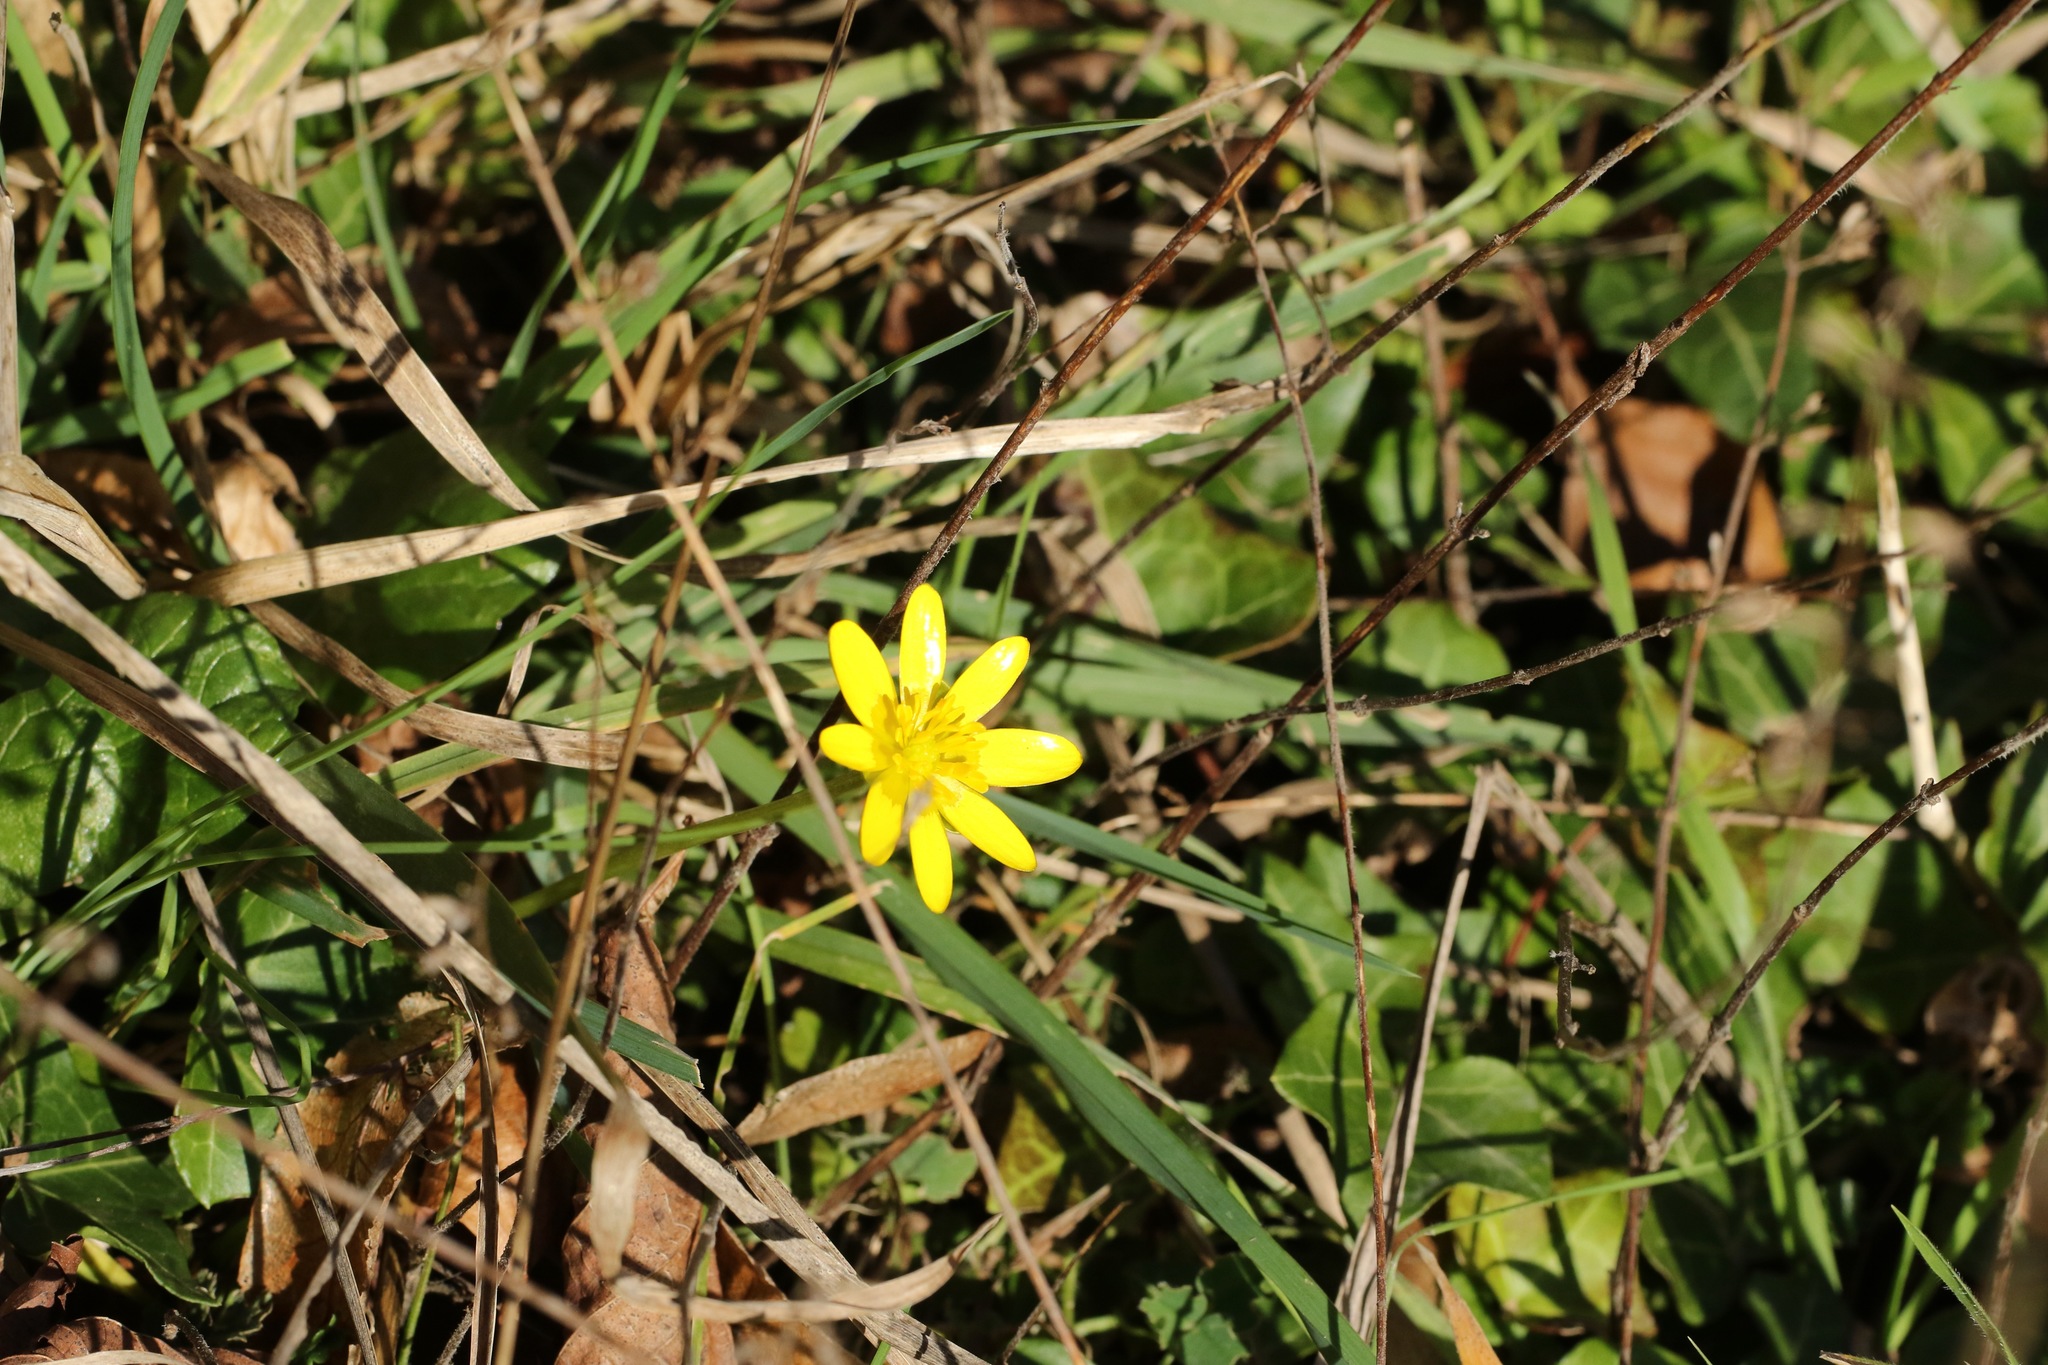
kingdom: Plantae
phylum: Tracheophyta
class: Magnoliopsida
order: Ranunculales
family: Ranunculaceae
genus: Ficaria
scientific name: Ficaria verna
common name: Lesser celandine
